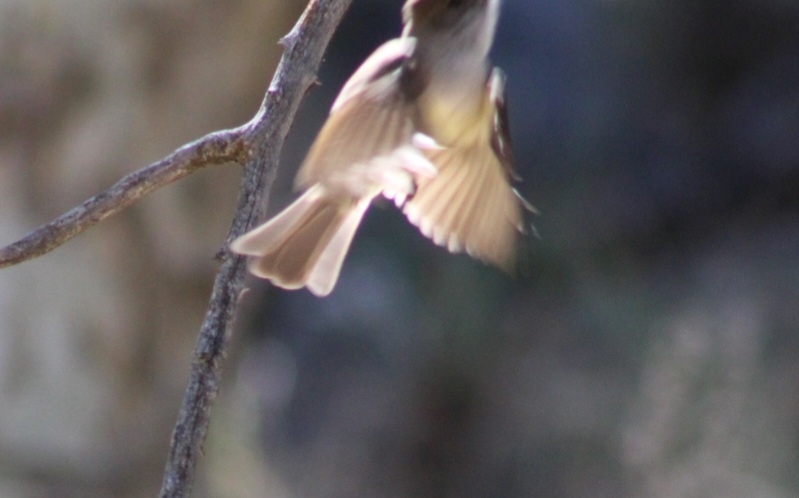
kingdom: Animalia
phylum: Chordata
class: Aves
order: Passeriformes
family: Tyrannidae
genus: Myiarchus
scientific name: Myiarchus tuberculifer
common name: Dusky-capped flycatcher
